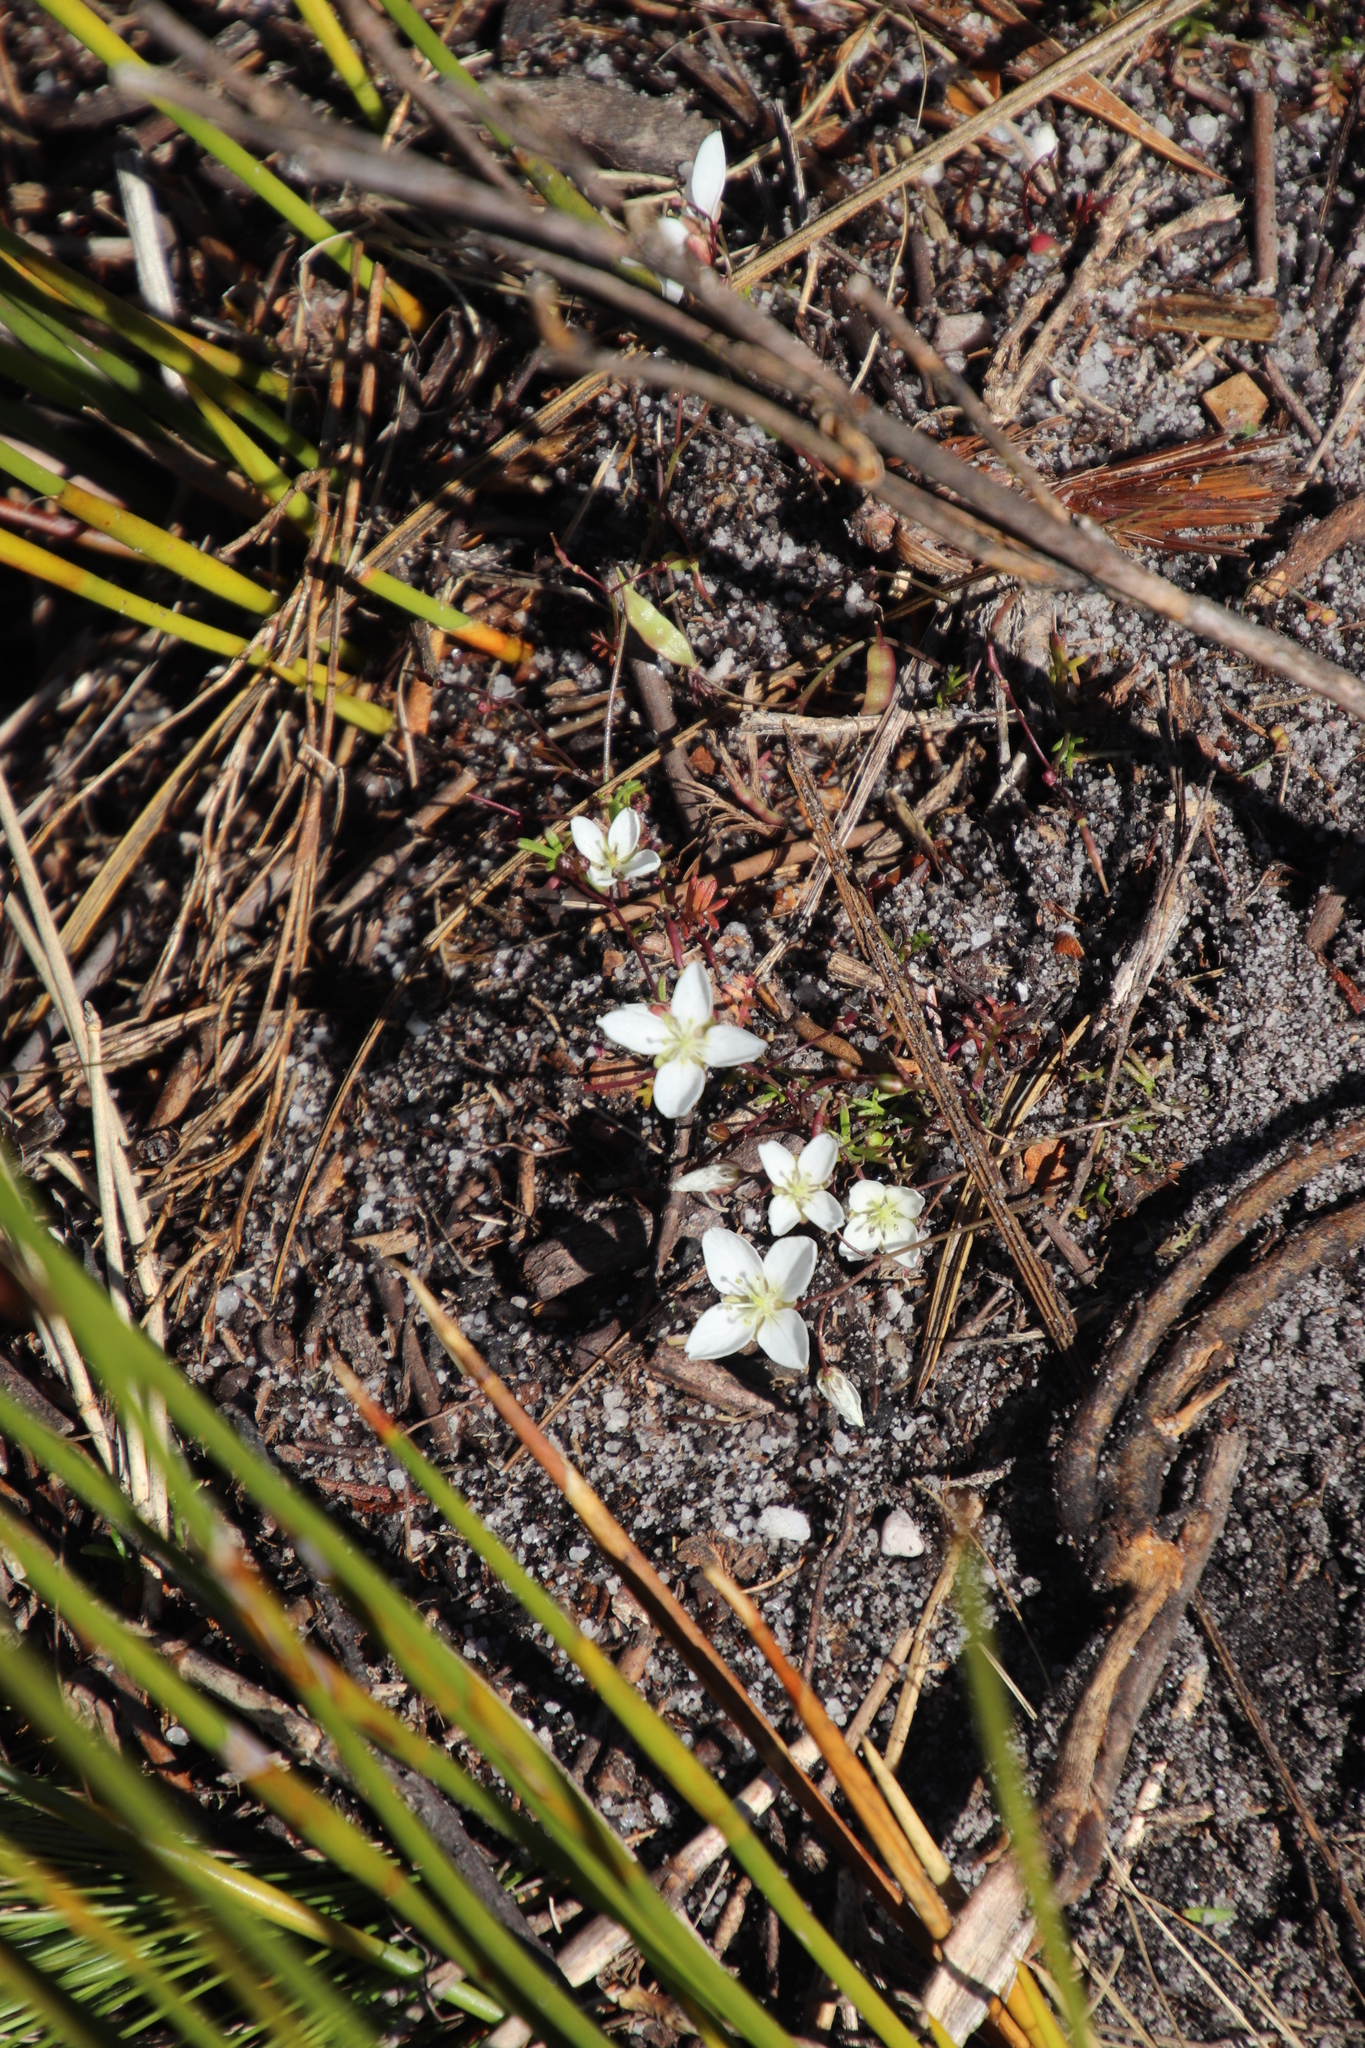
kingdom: Plantae
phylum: Tracheophyta
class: Magnoliopsida
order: Brassicales
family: Brassicaceae
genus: Heliophila
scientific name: Heliophila meyeri
